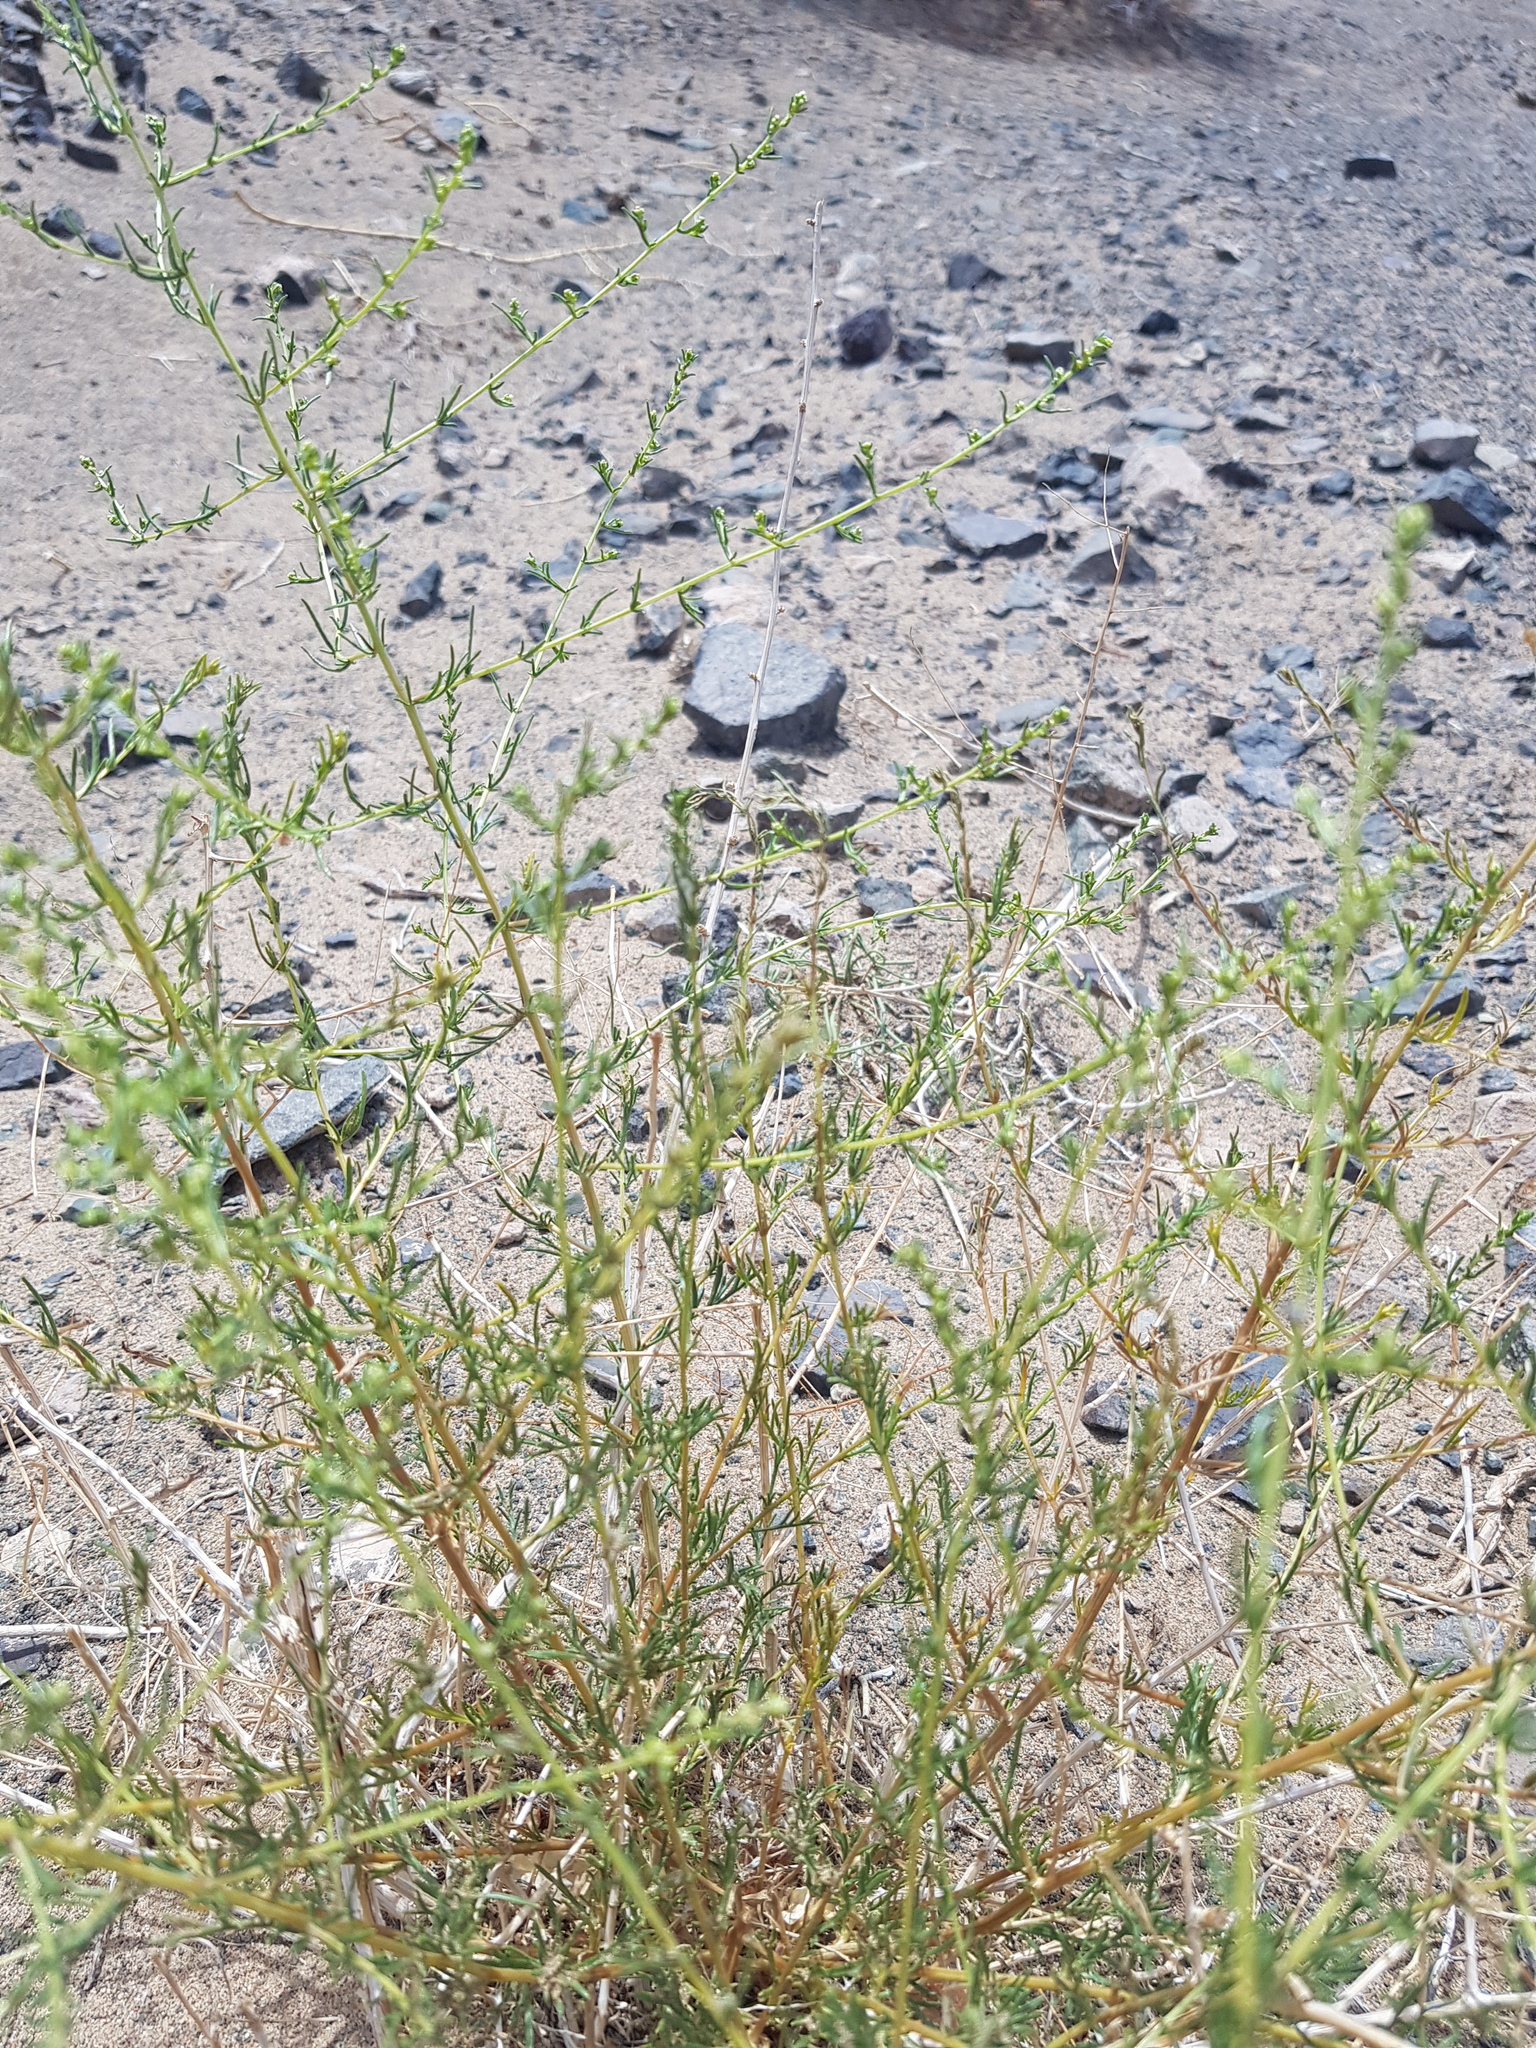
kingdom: Plantae
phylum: Tracheophyta
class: Magnoliopsida
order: Asterales
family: Asteraceae
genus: Artemisia
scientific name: Artemisia scoparia
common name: Redstem wormwood
